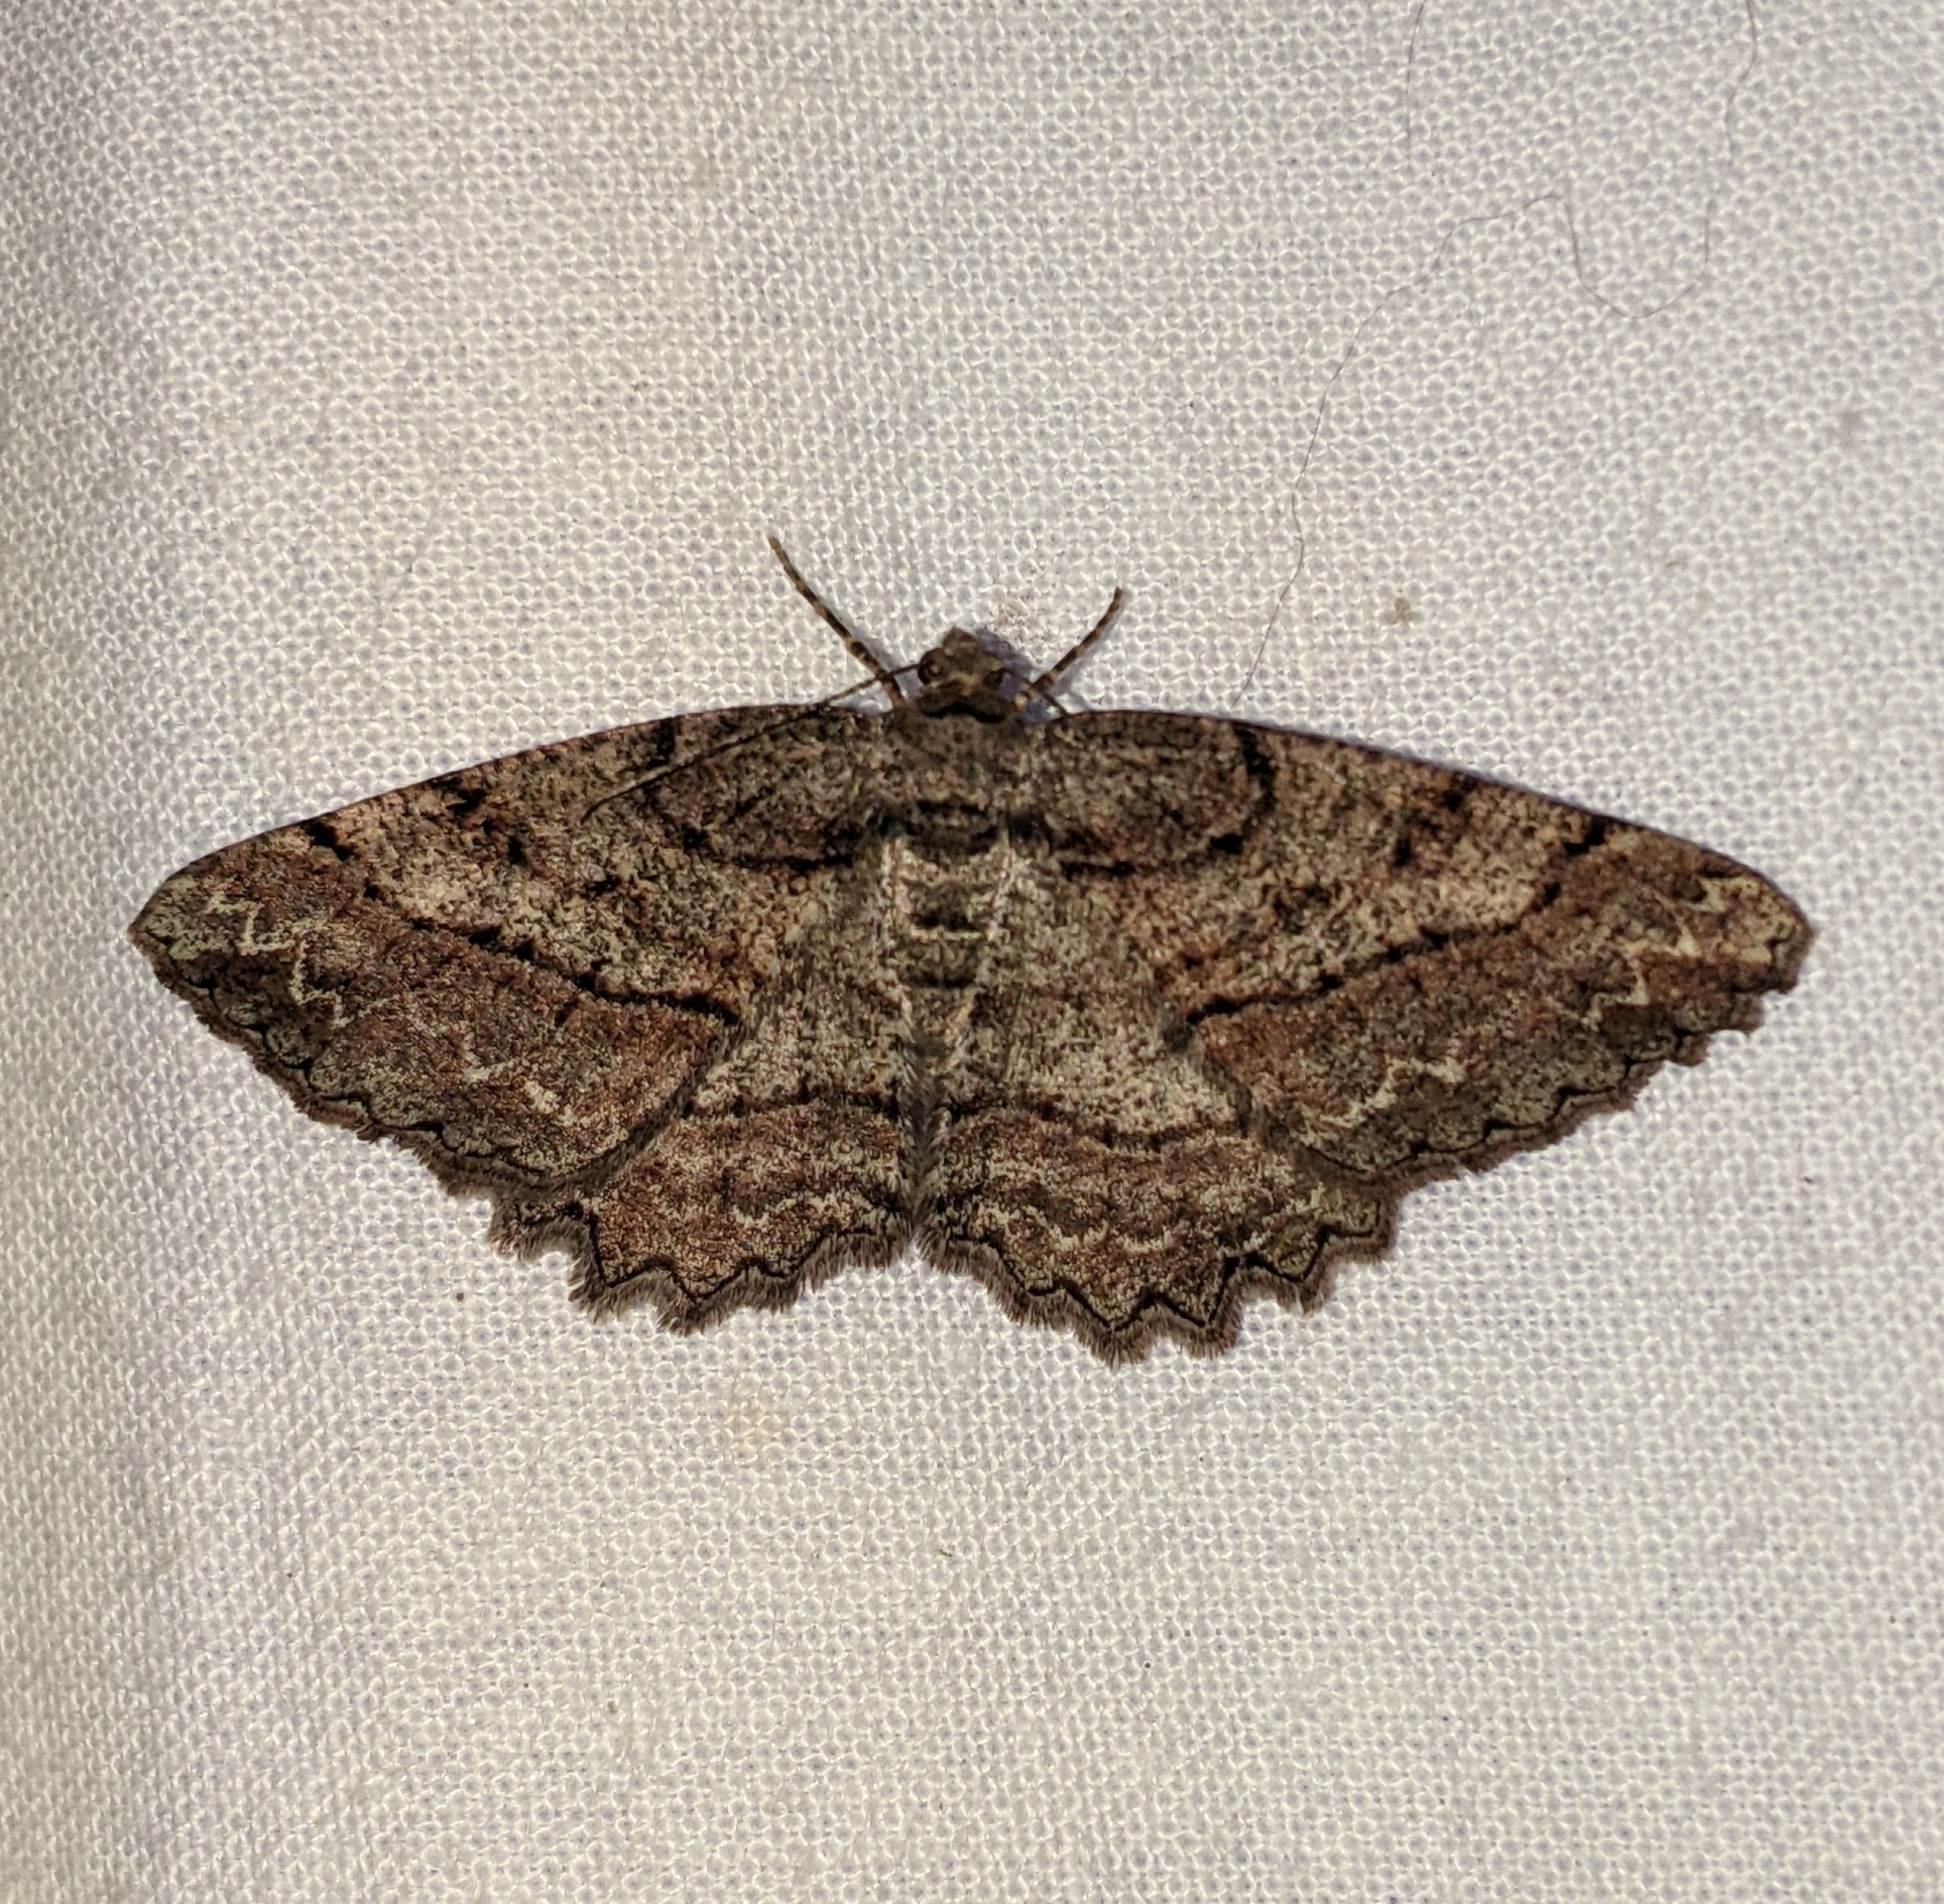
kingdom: Animalia
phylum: Arthropoda
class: Insecta
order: Lepidoptera
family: Geometridae
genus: Neoalcis
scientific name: Neoalcis californiaria
